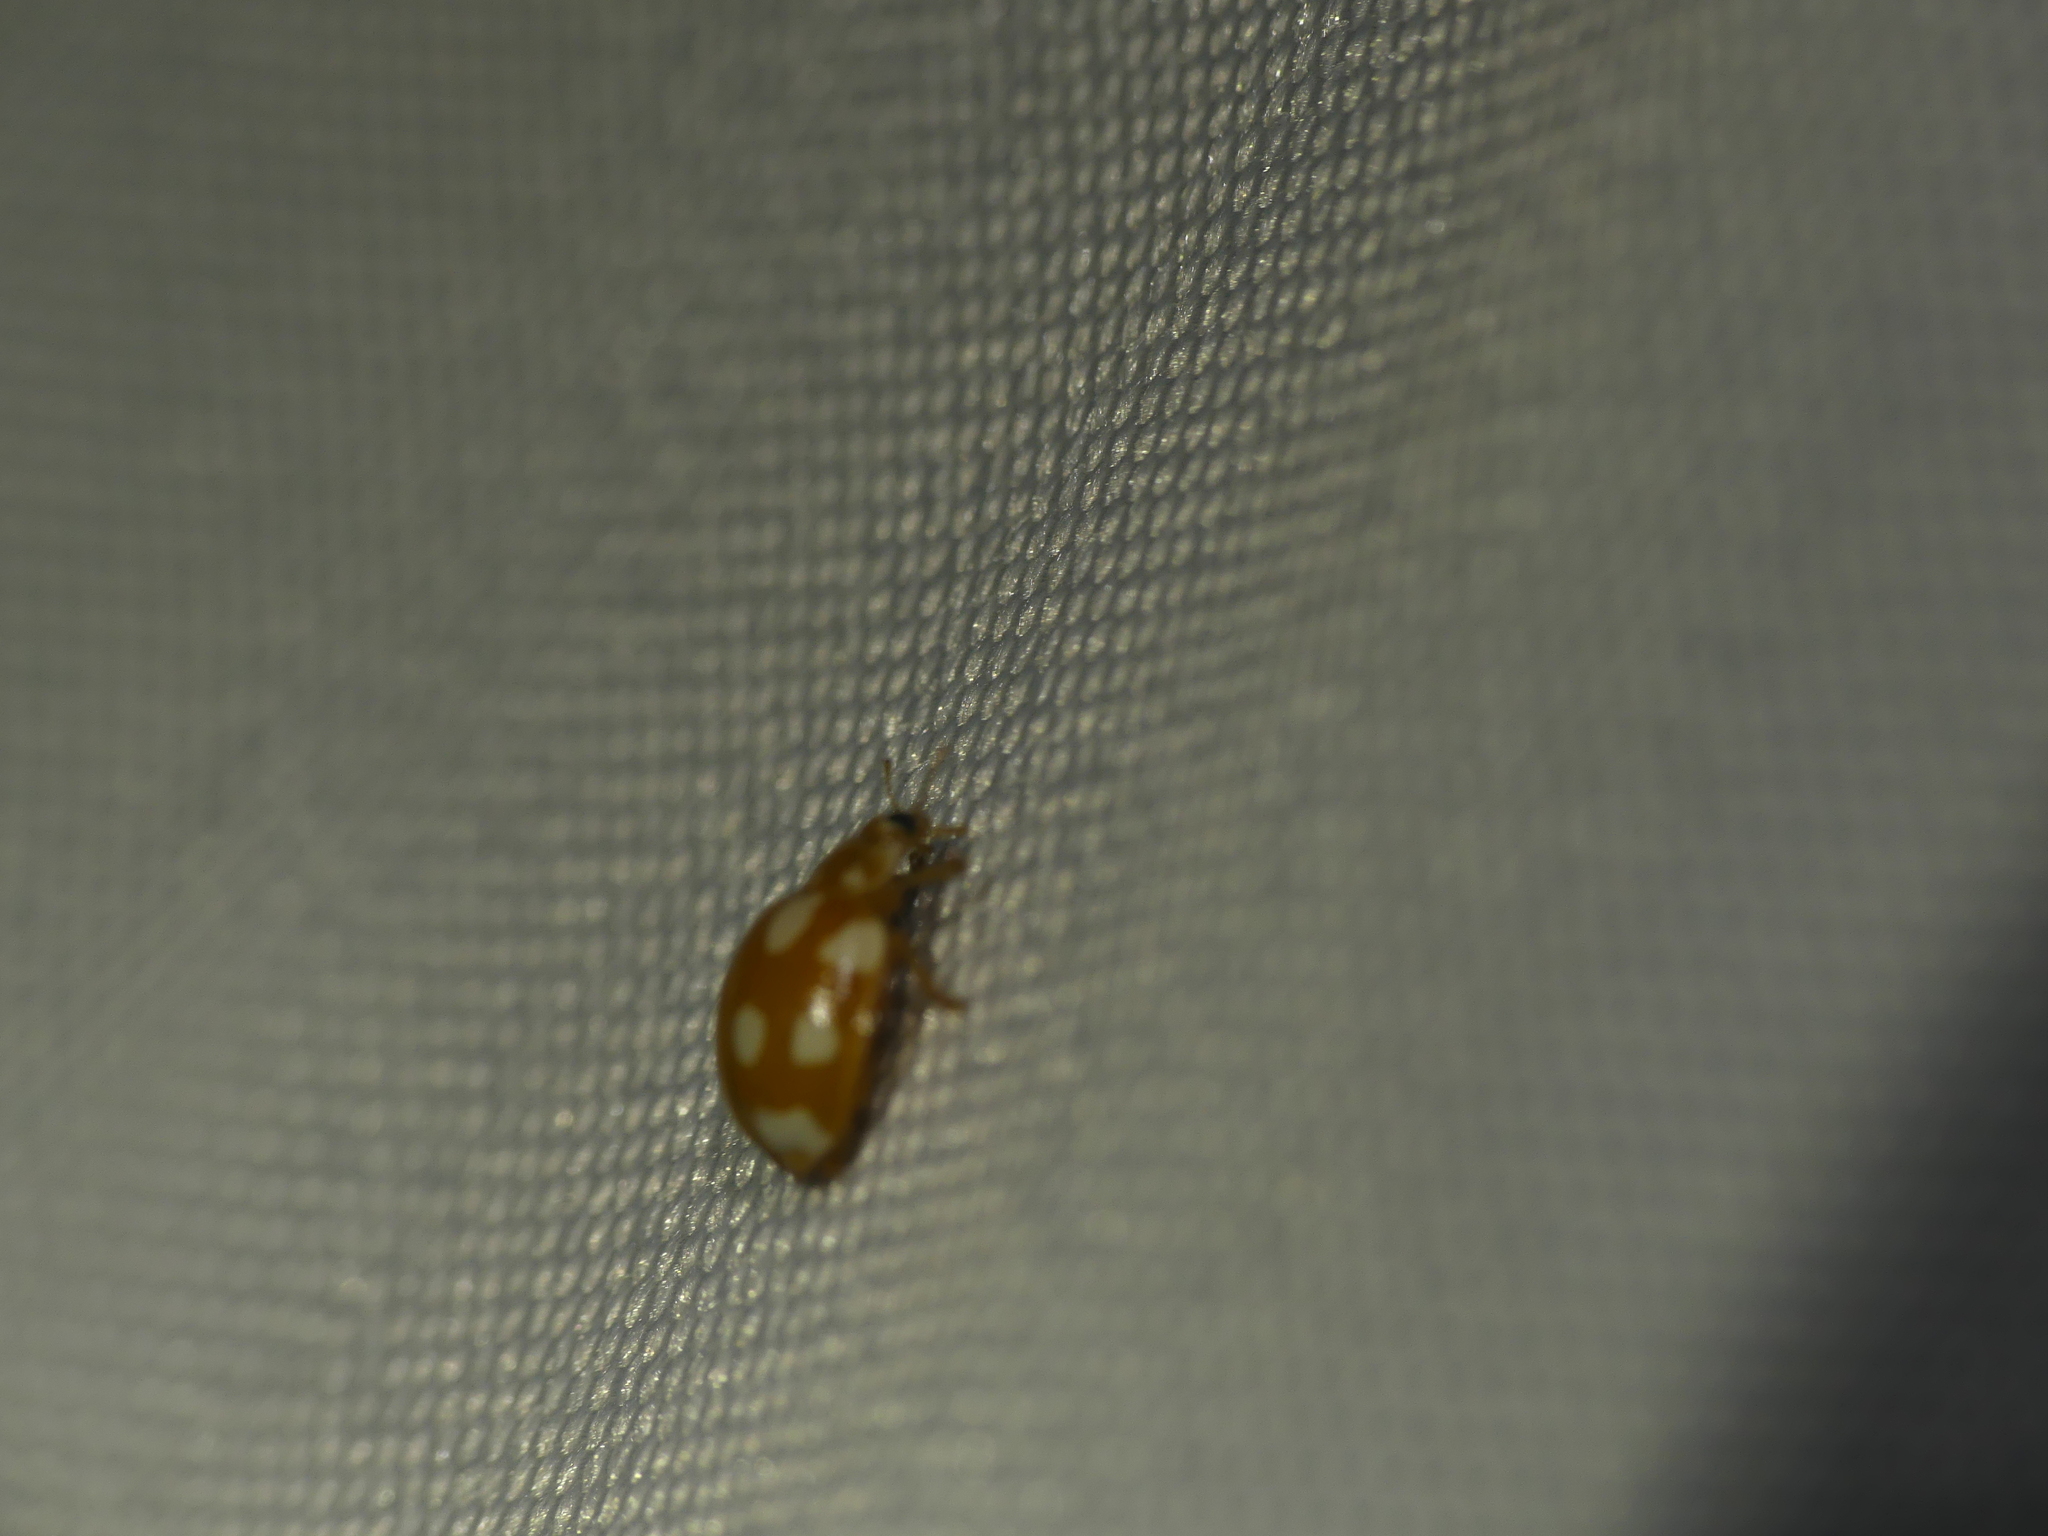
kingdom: Animalia
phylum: Arthropoda
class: Insecta
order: Coleoptera
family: Coccinellidae
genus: Calvia
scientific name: Calvia decemguttata
